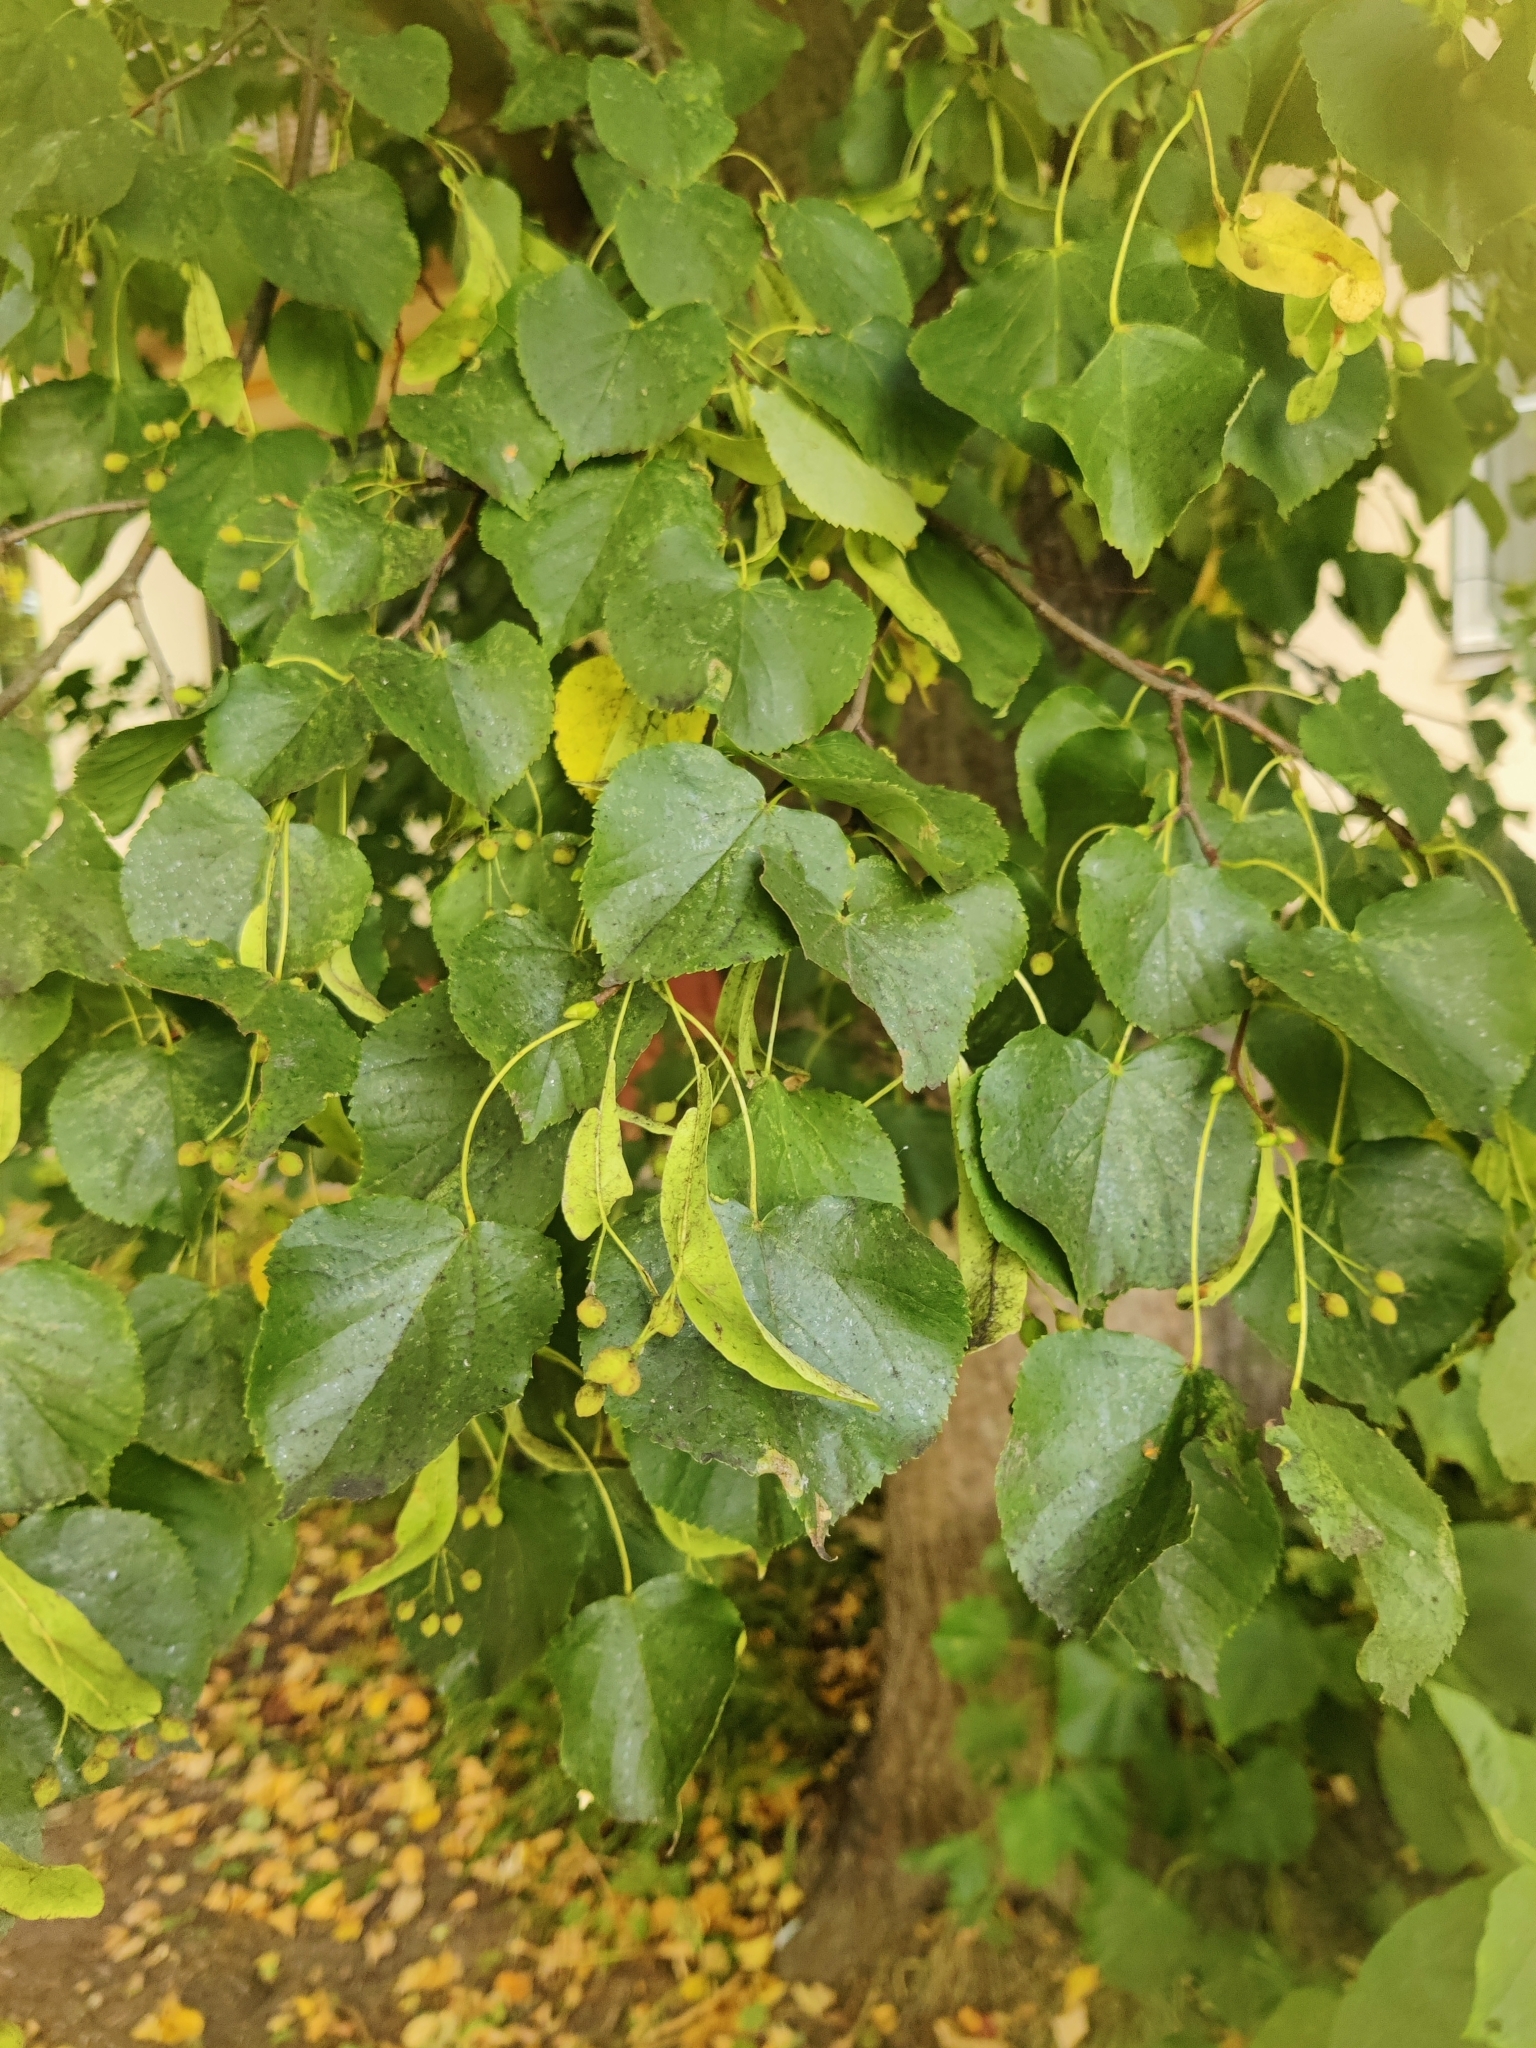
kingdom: Plantae
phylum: Tracheophyta
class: Magnoliopsida
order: Malvales
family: Malvaceae
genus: Tilia
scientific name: Tilia cordata
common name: Small-leaved lime
